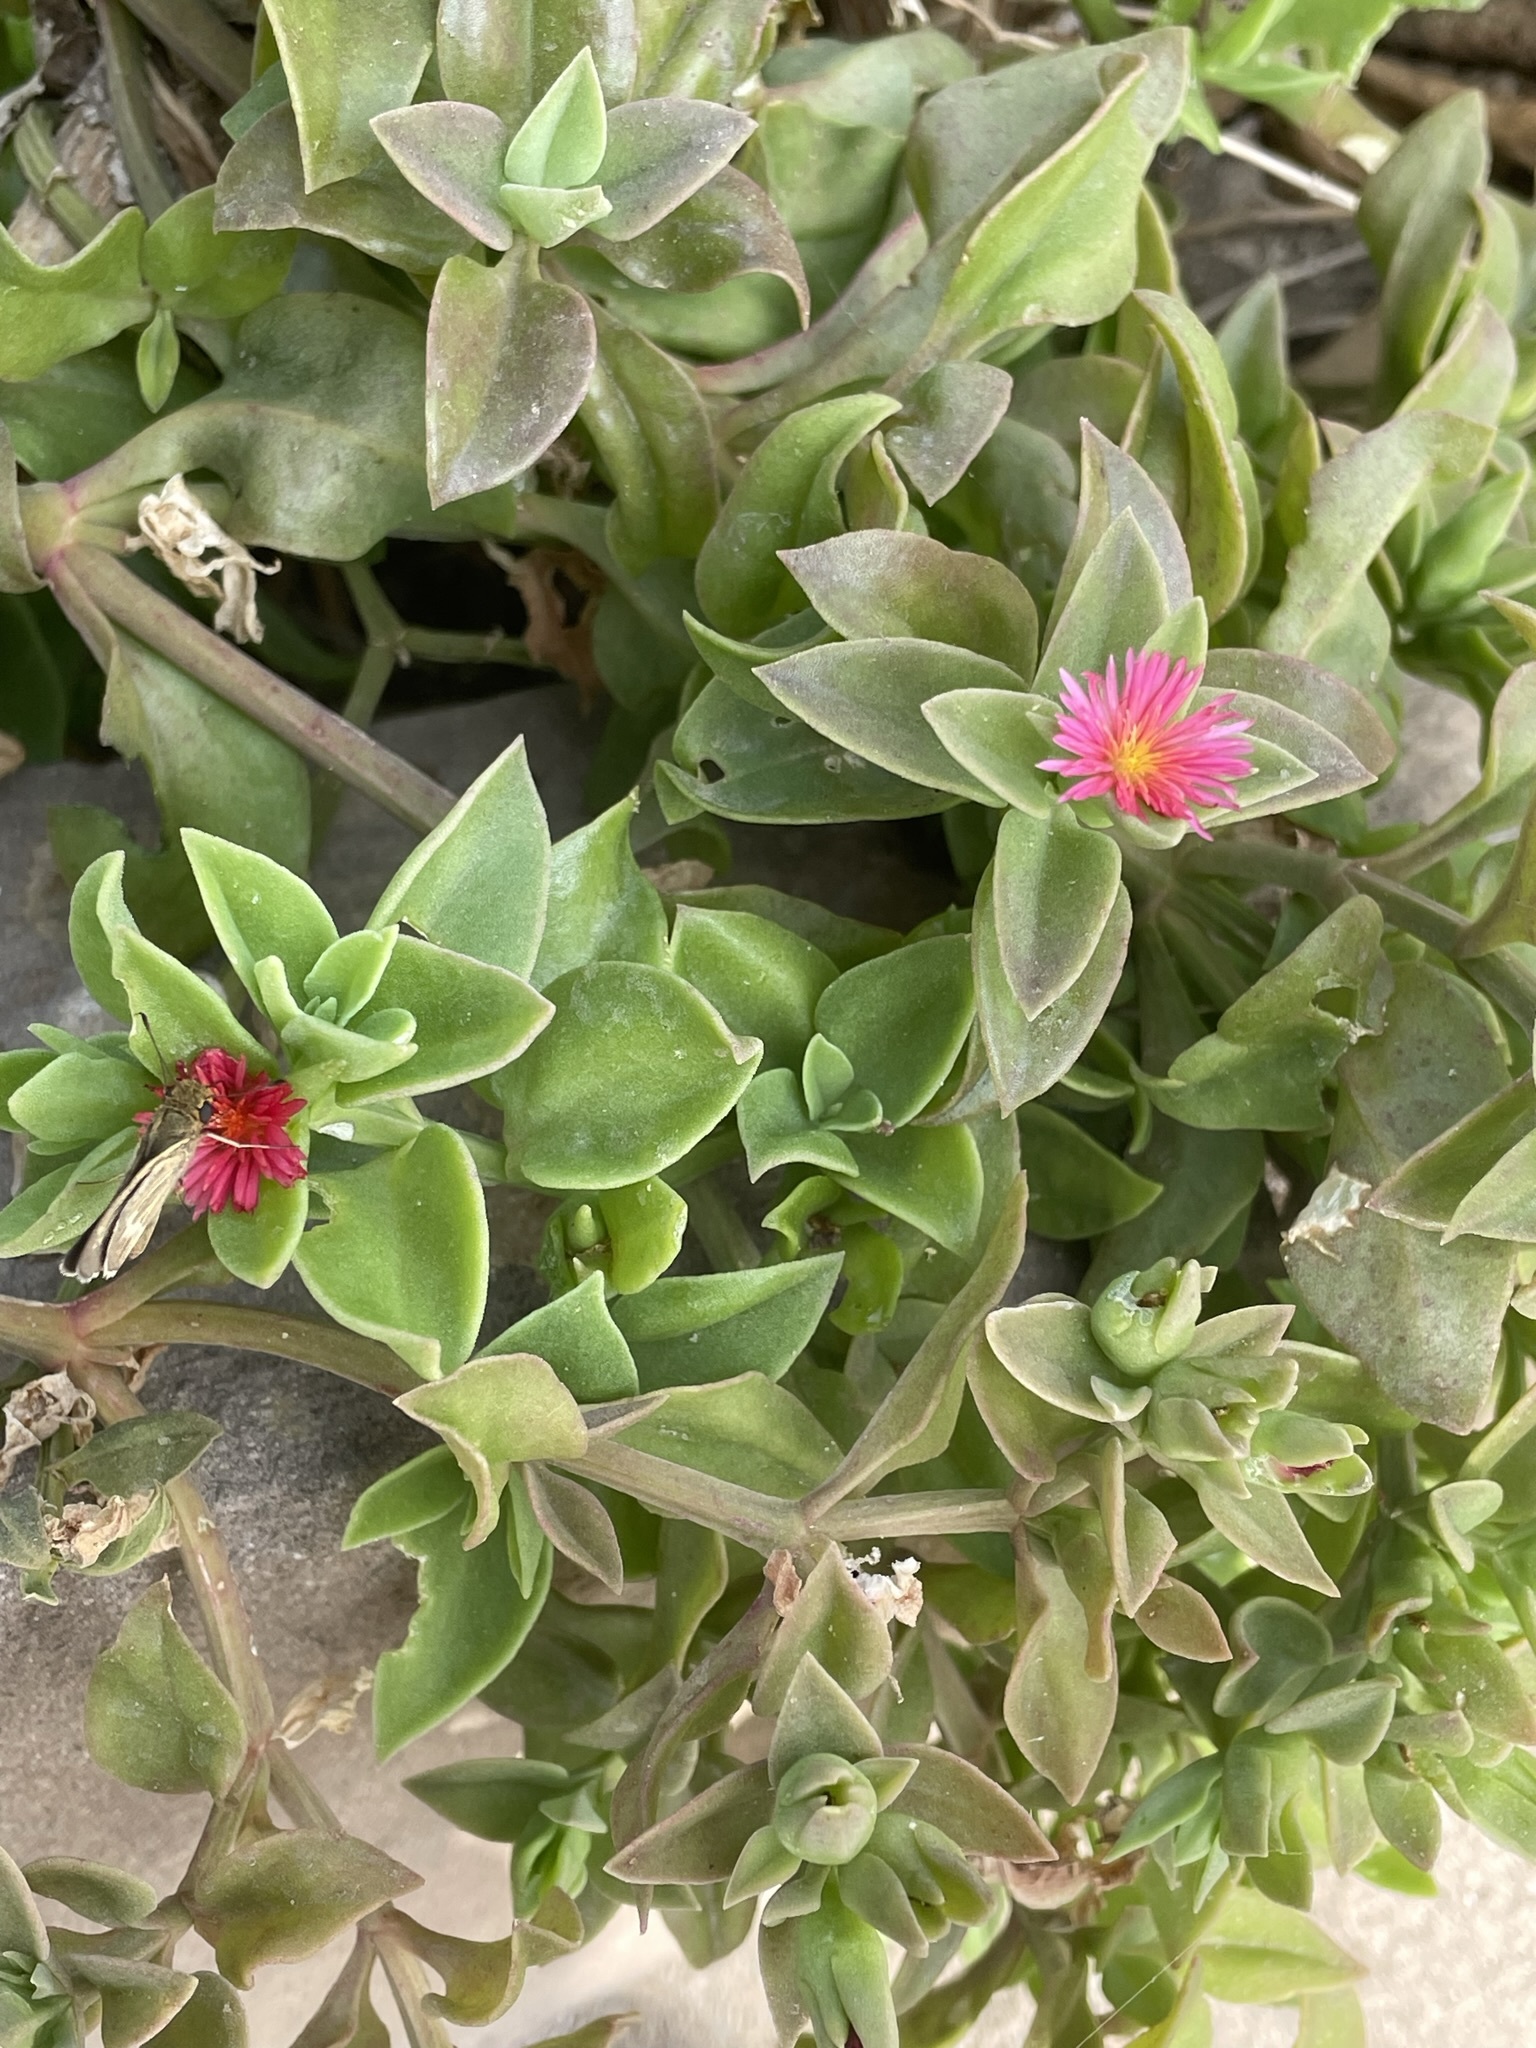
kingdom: Plantae
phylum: Tracheophyta
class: Magnoliopsida
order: Caryophyllales
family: Aizoaceae
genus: Mesembryanthemum
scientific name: Mesembryanthemum cordifolium
